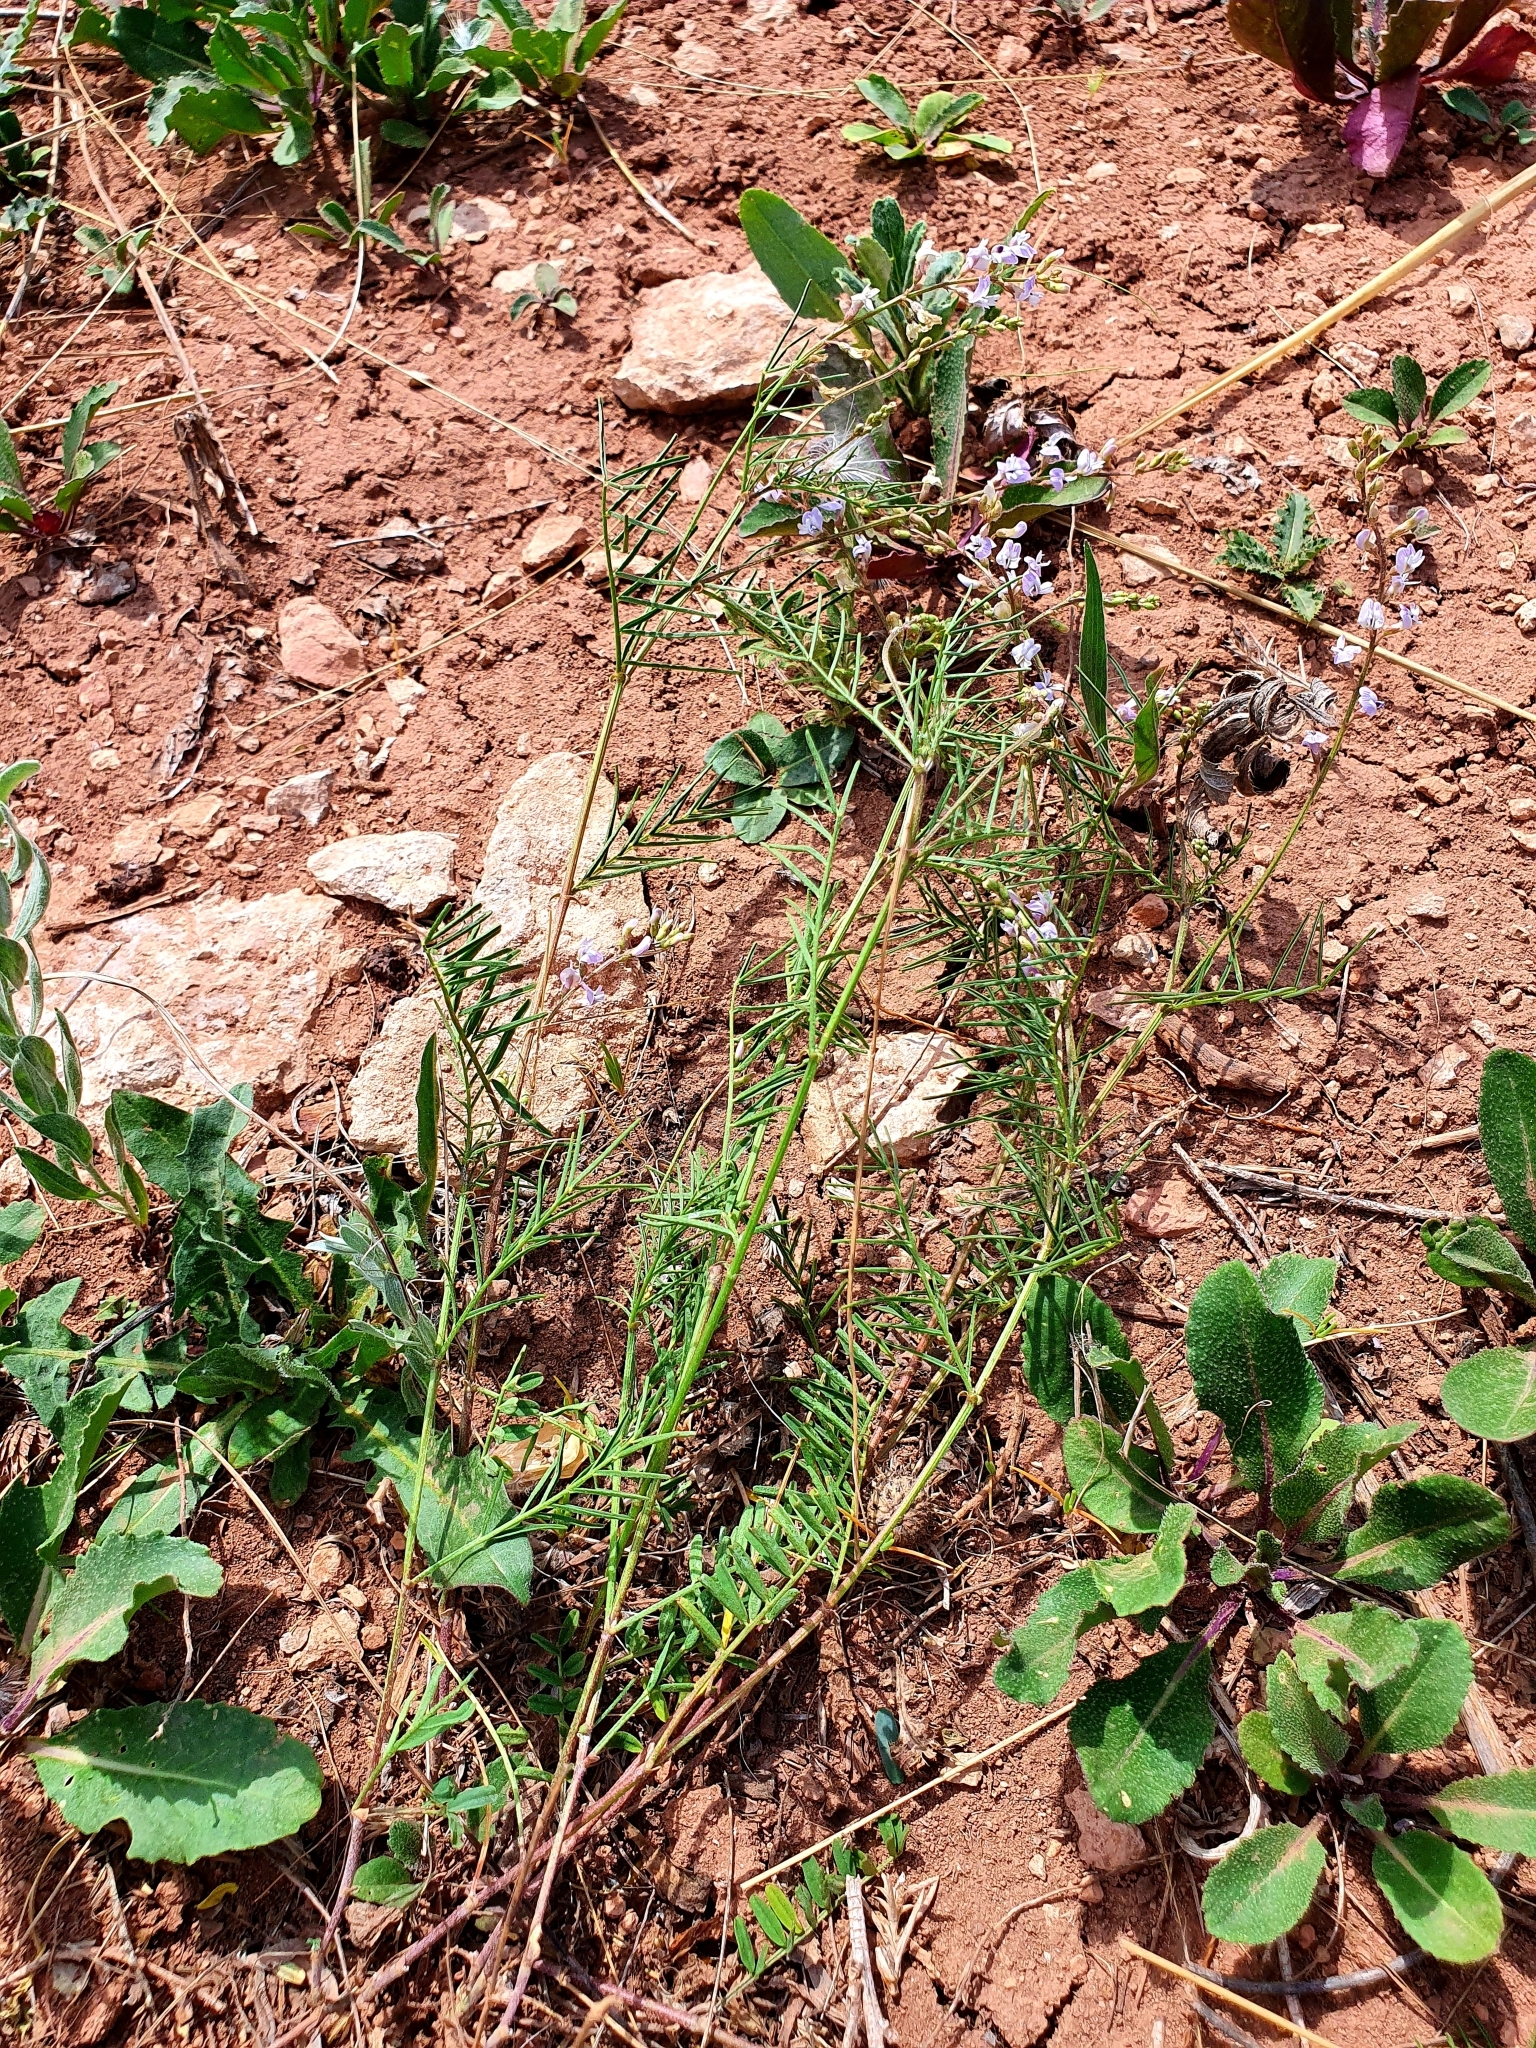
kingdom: Plantae
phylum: Tracheophyta
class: Magnoliopsida
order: Fabales
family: Fabaceae
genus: Astragalus
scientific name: Astragalus austriacus
